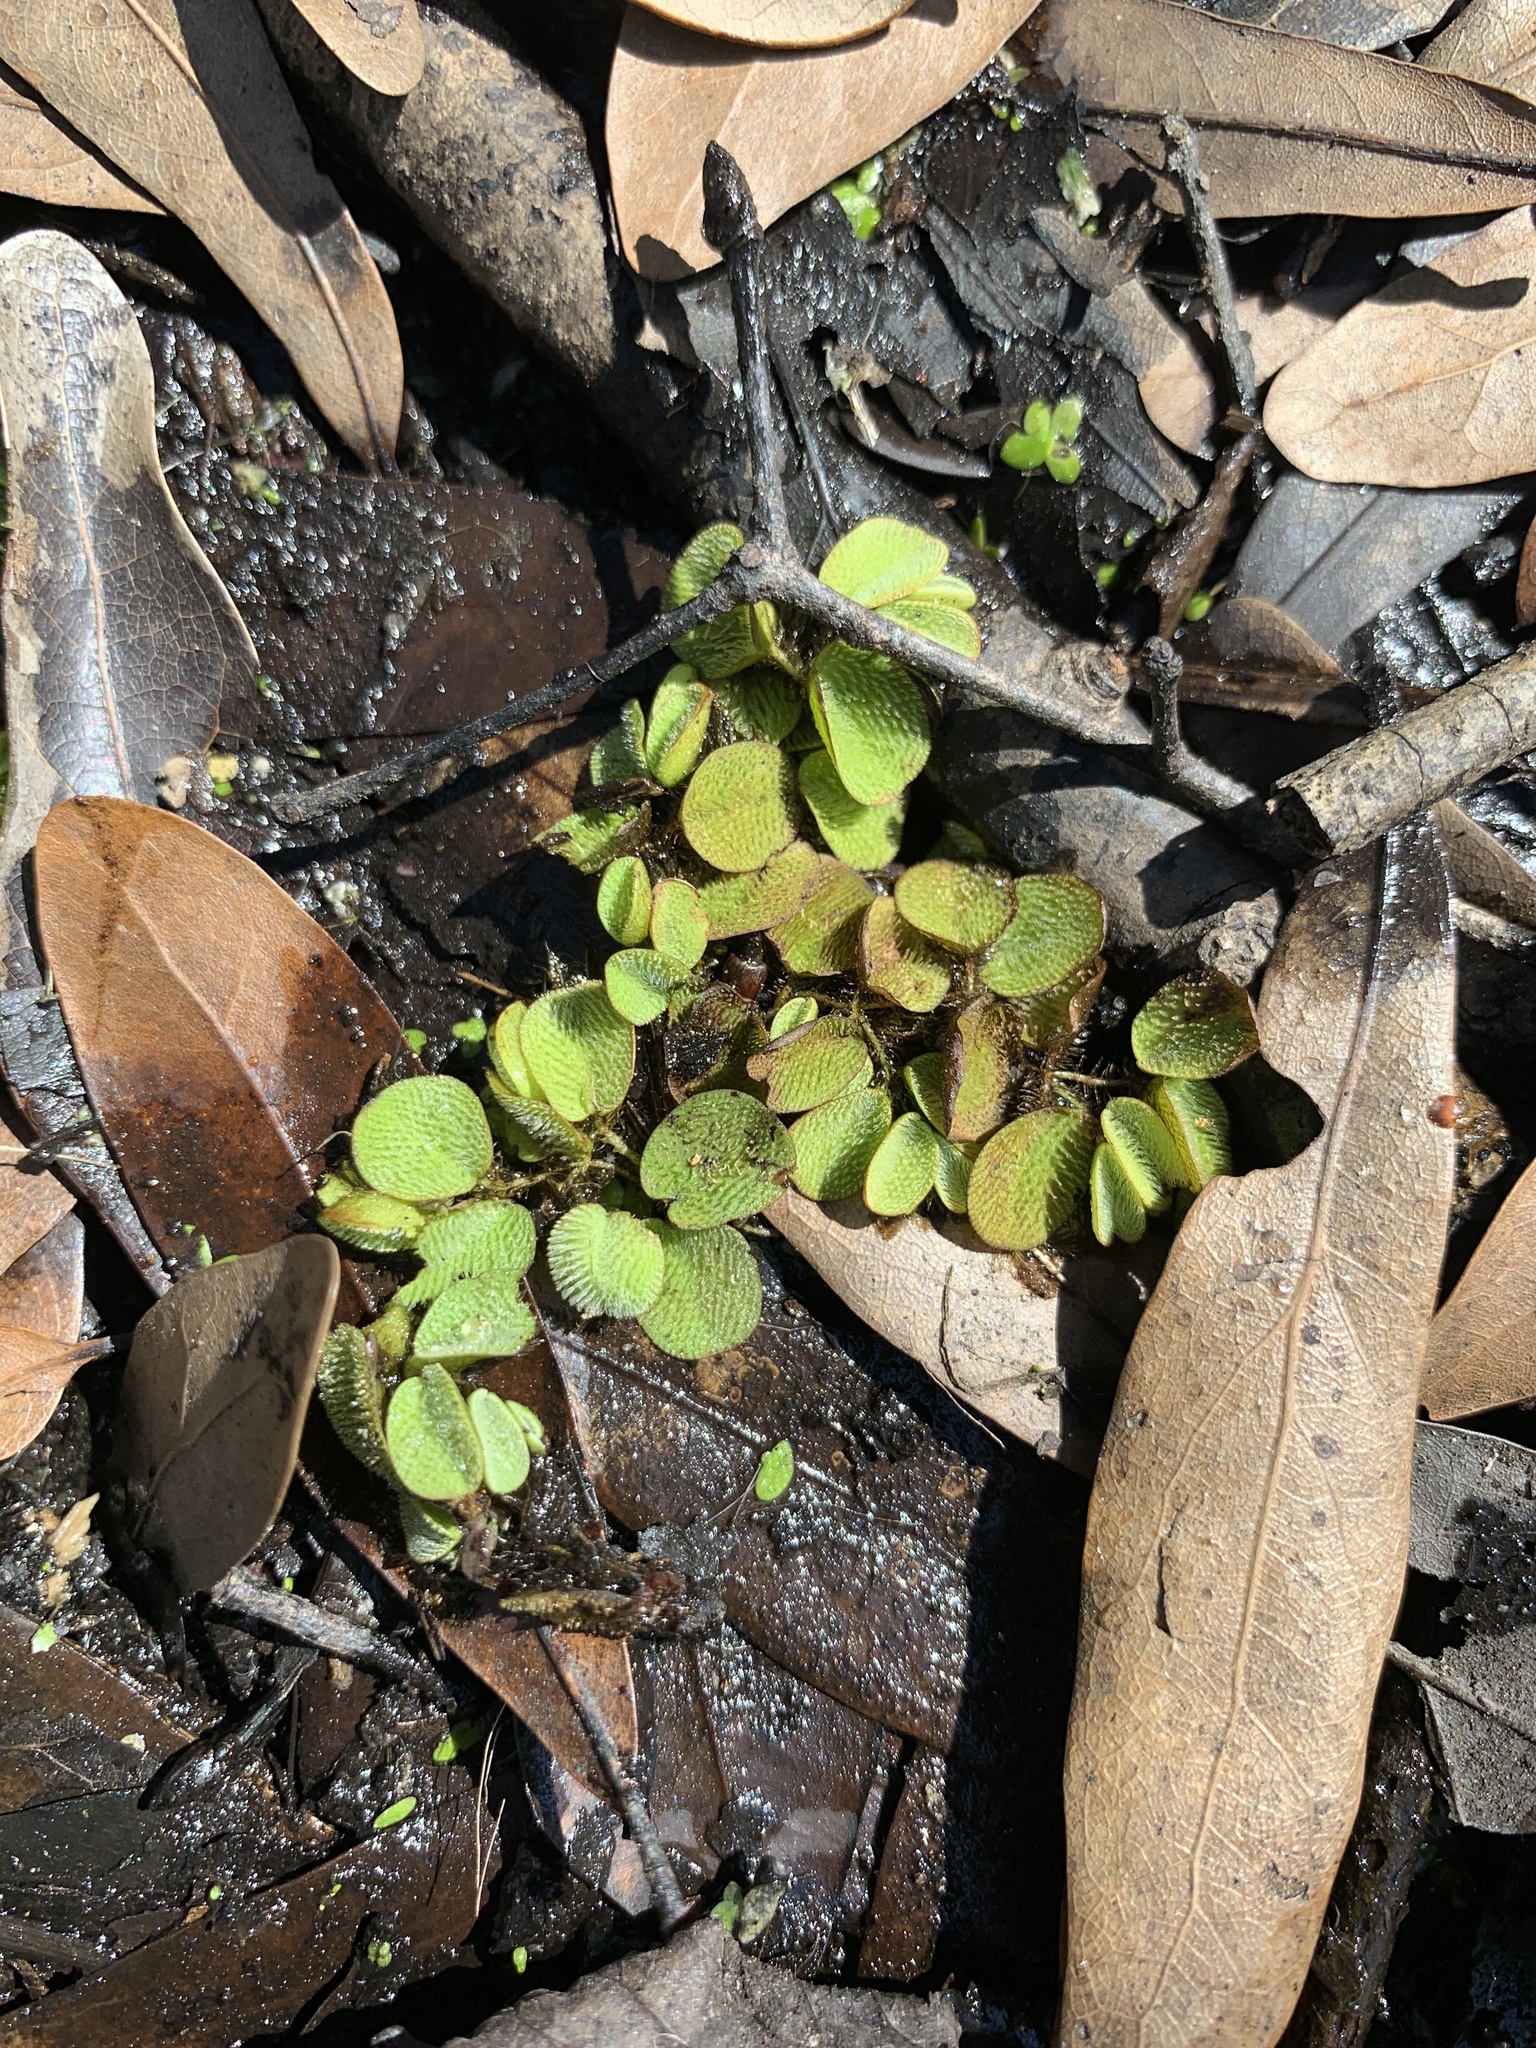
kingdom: Plantae
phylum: Tracheophyta
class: Polypodiopsida
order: Salviniales
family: Salviniaceae
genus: Salvinia
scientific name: Salvinia minima
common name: Water spangles
